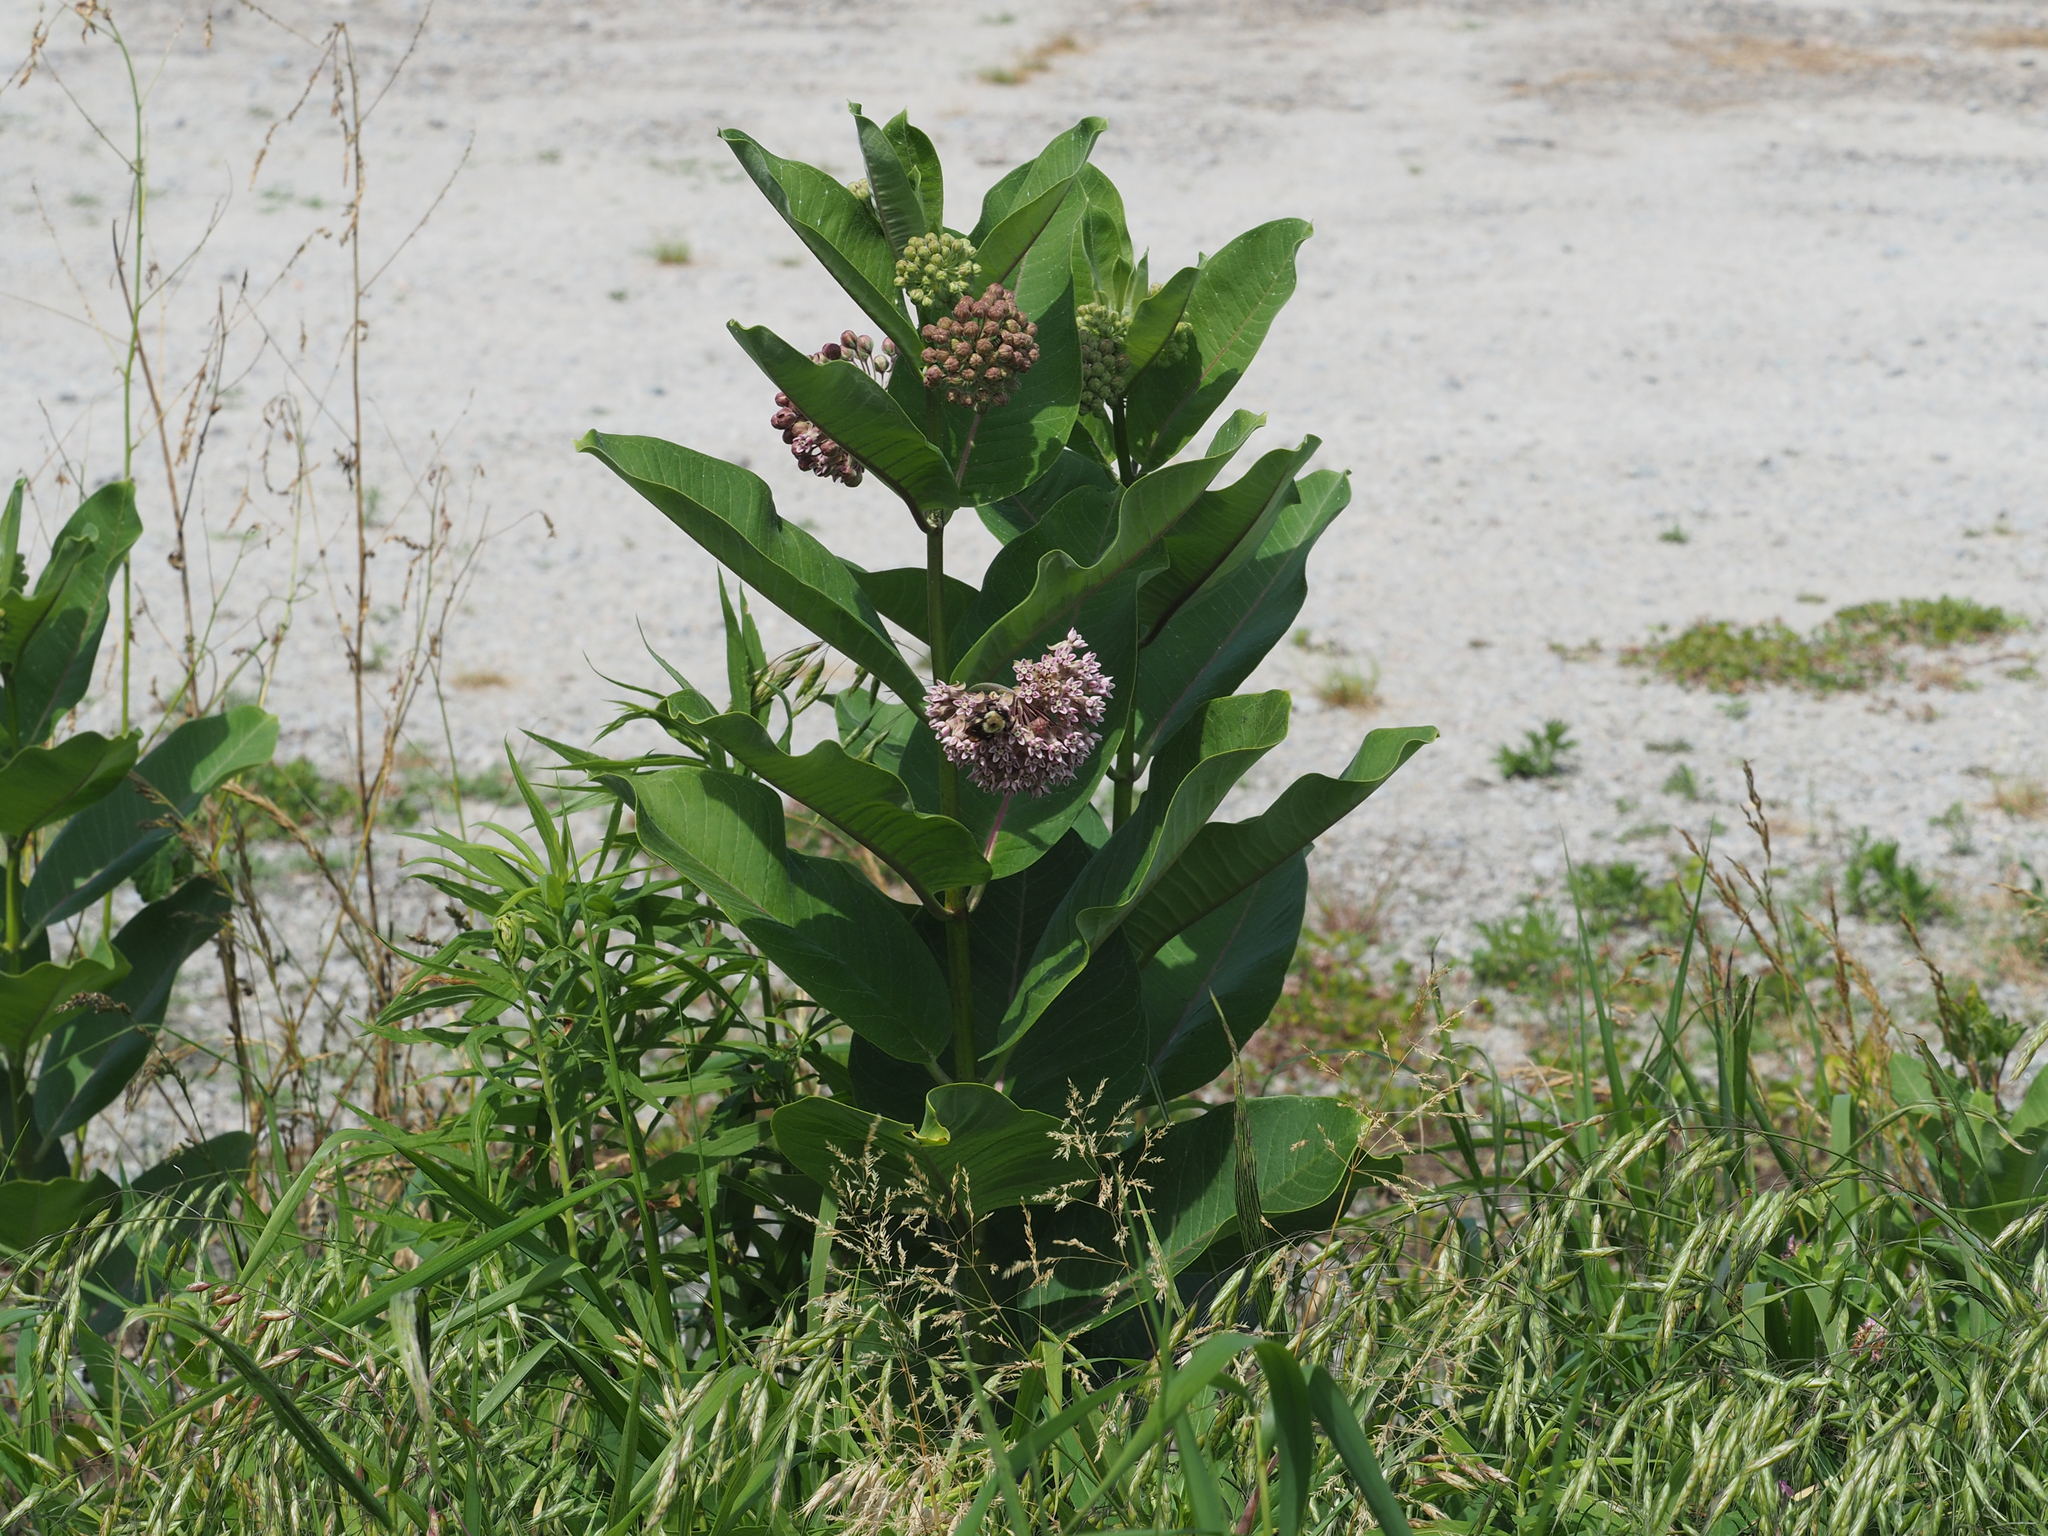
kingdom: Plantae
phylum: Tracheophyta
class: Magnoliopsida
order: Gentianales
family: Apocynaceae
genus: Asclepias
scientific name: Asclepias syriaca
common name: Common milkweed
